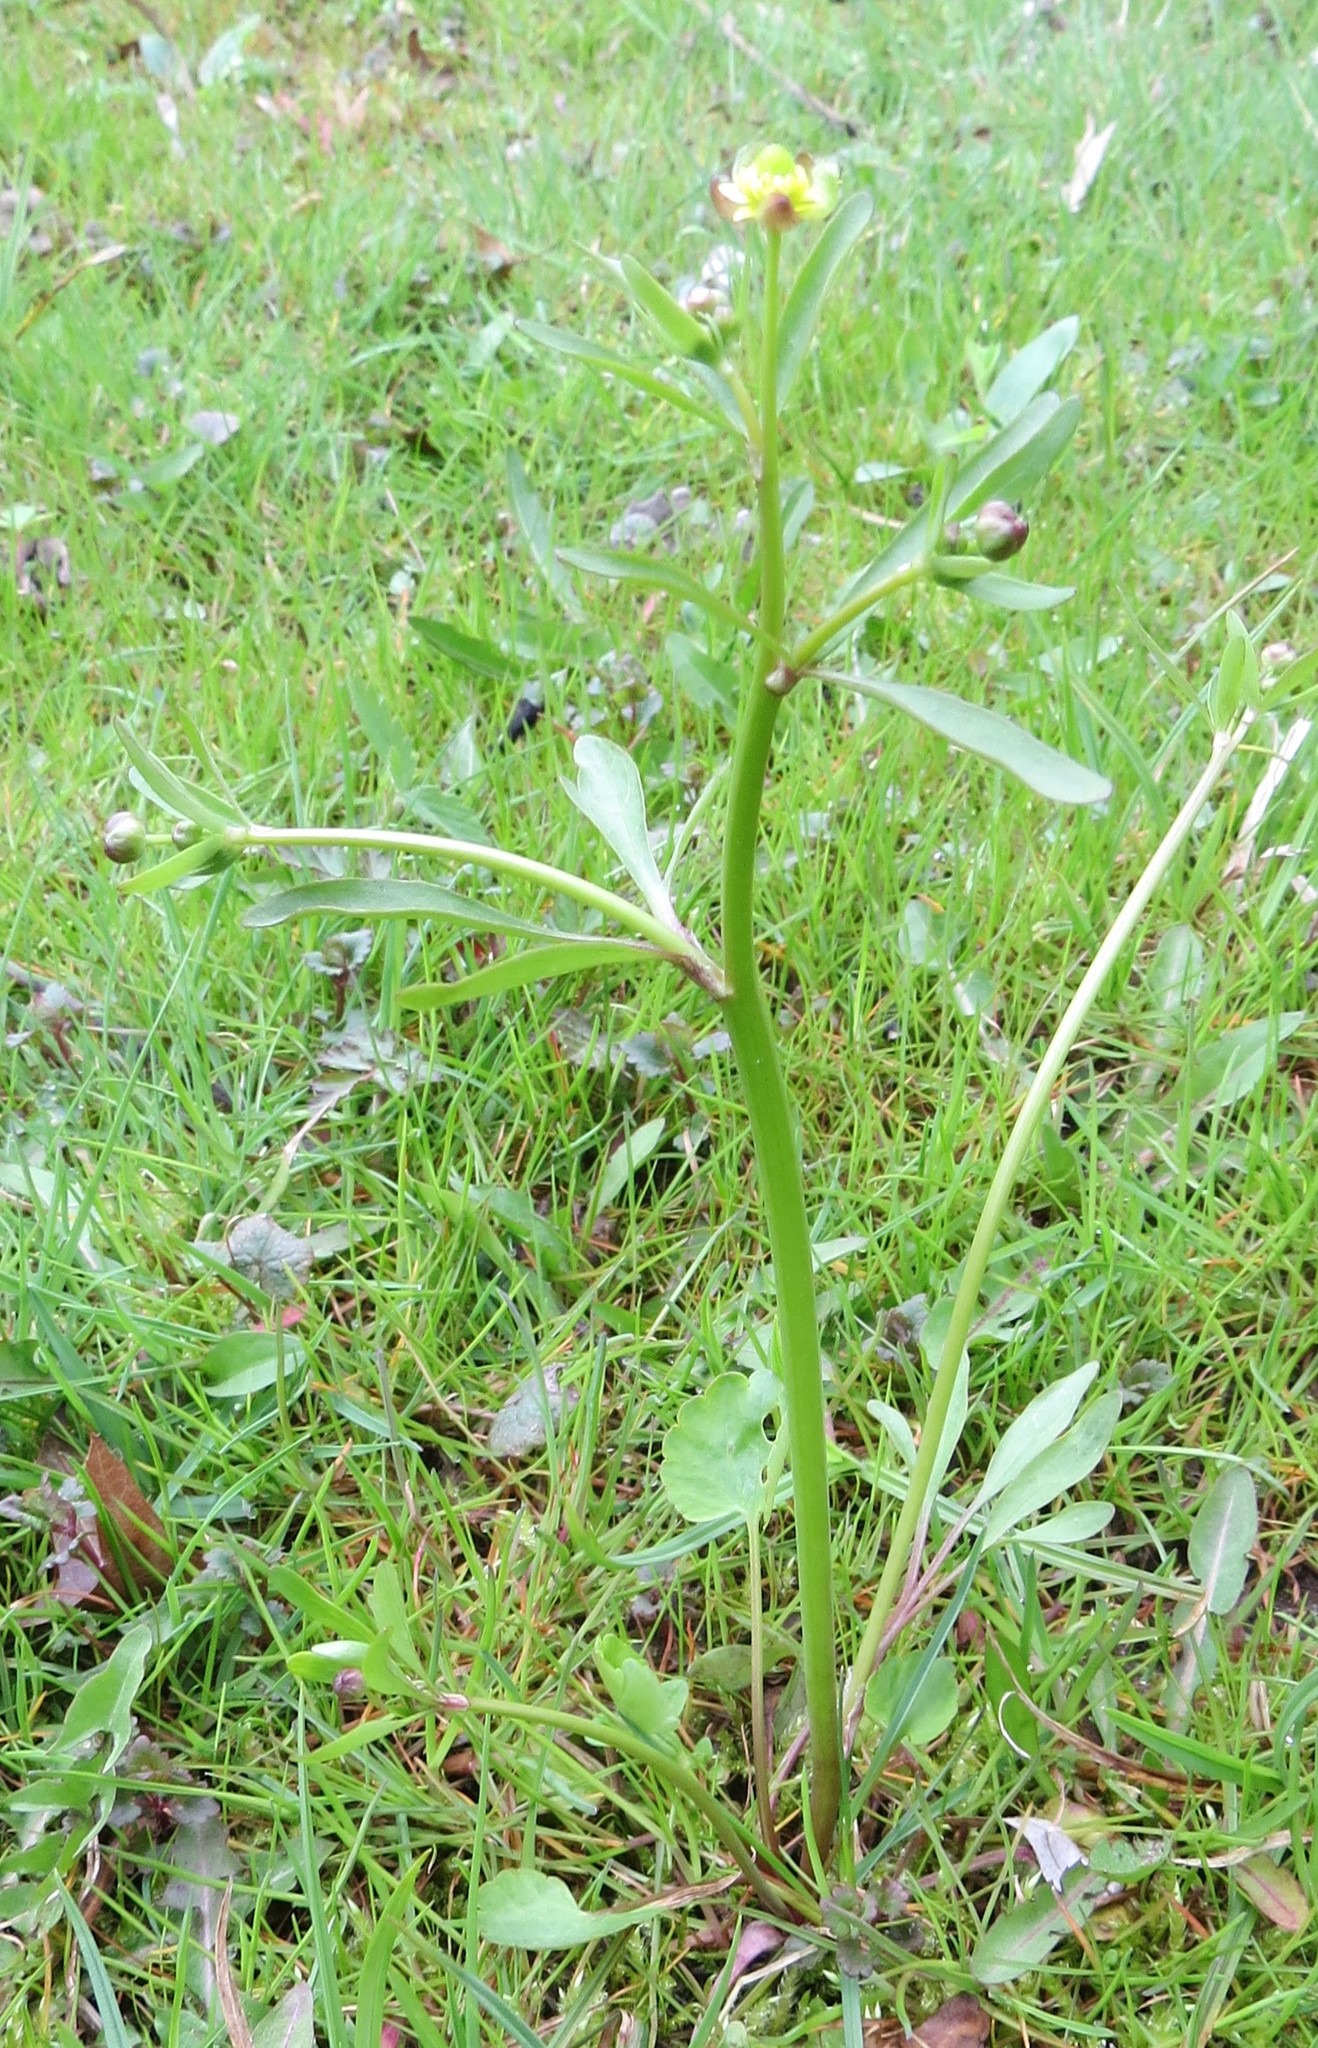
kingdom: Plantae
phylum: Tracheophyta
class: Magnoliopsida
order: Ranunculales
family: Ranunculaceae
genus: Ranunculus
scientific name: Ranunculus abortivus
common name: Early wood buttercup
